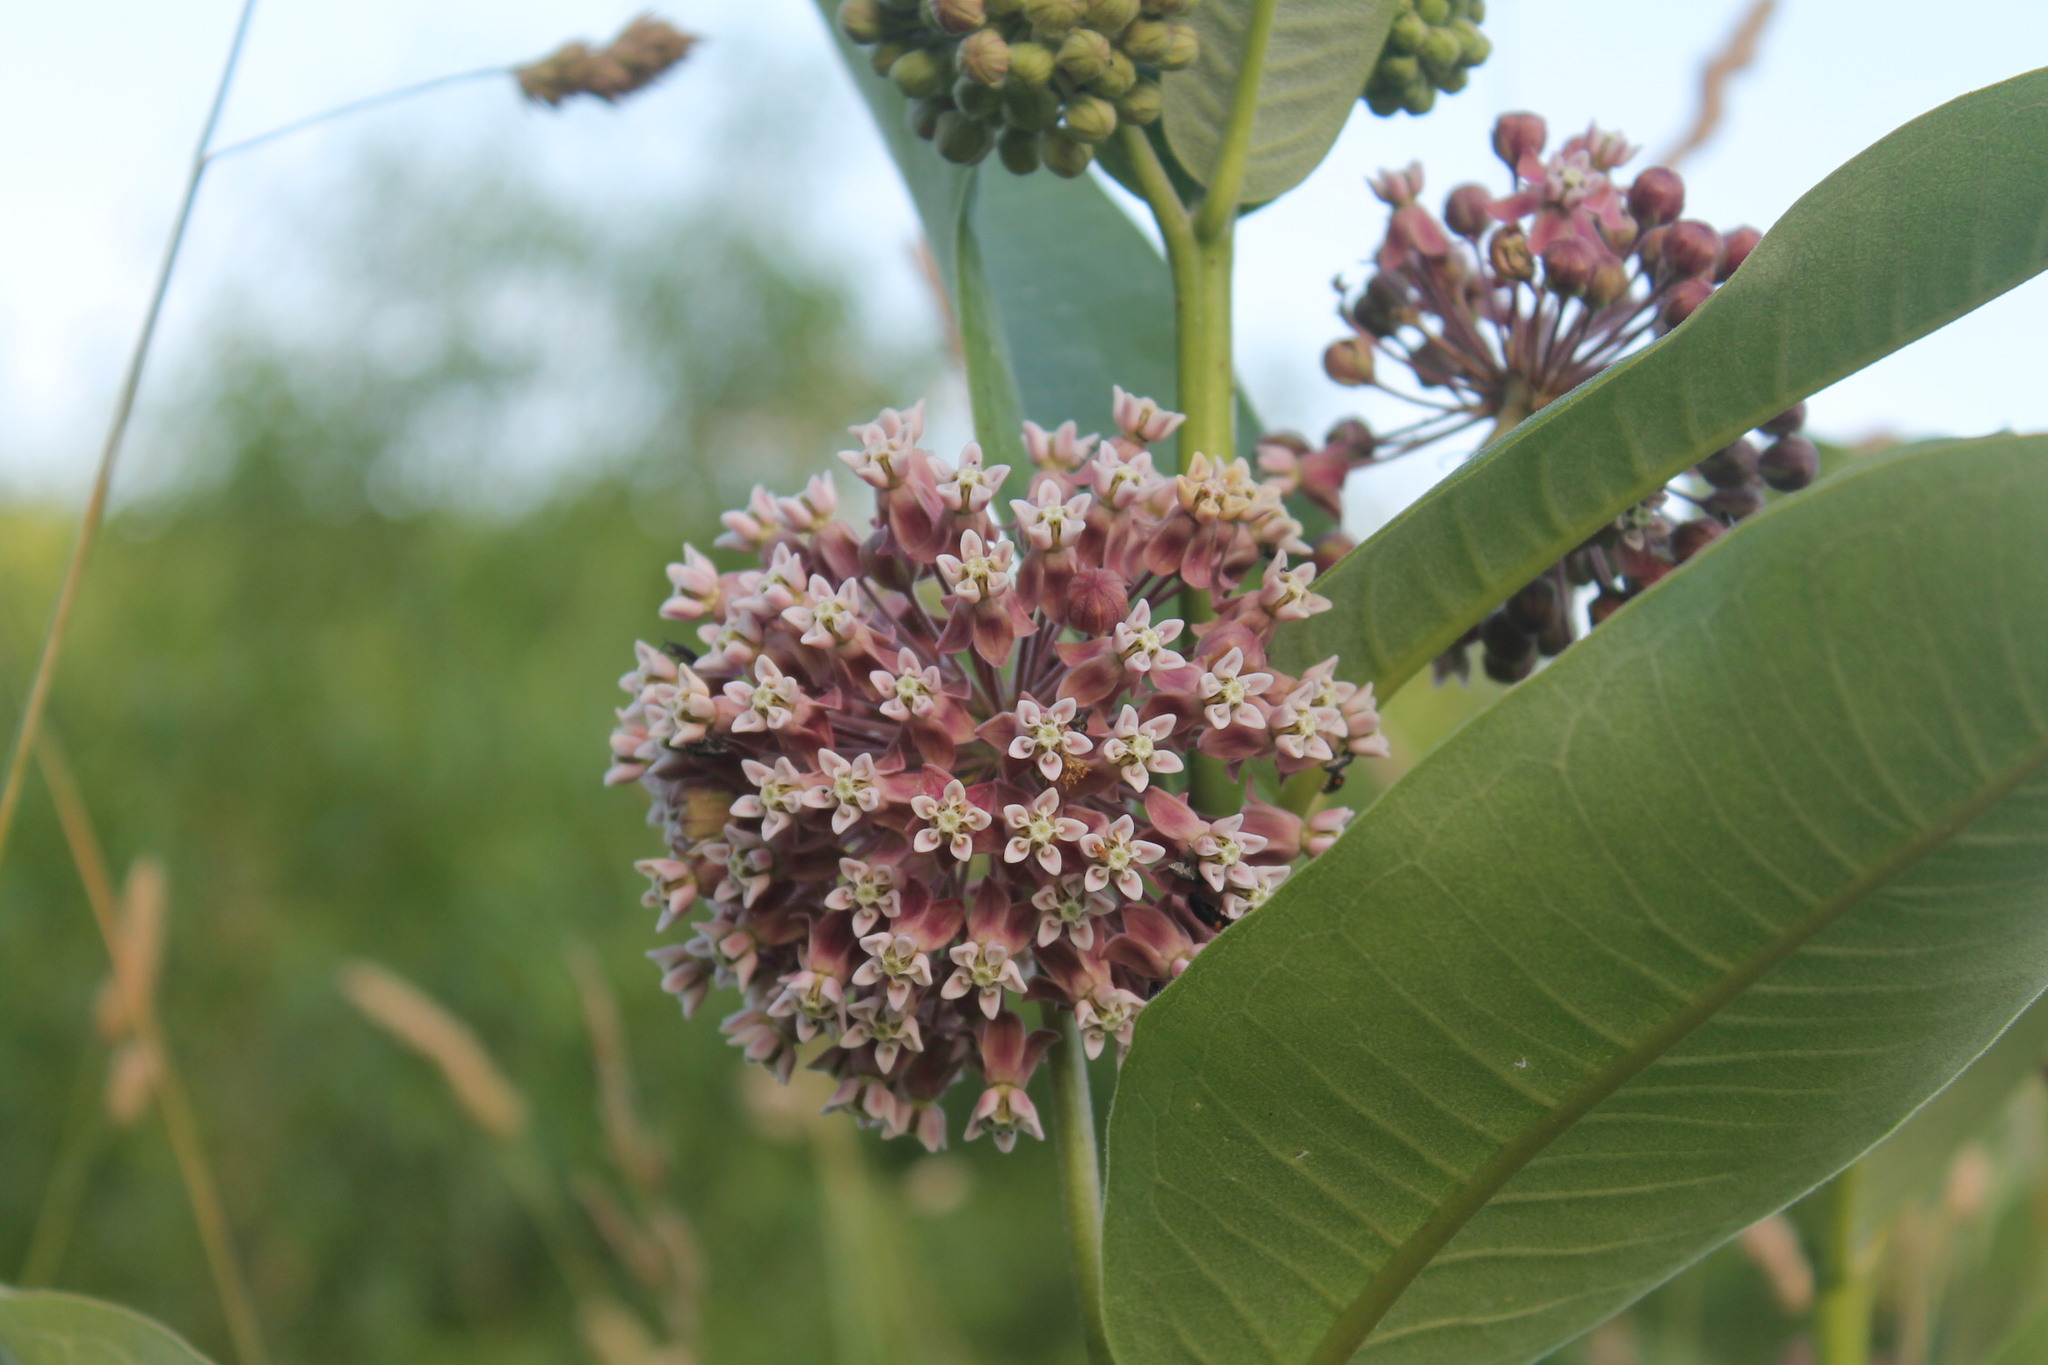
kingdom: Plantae
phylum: Tracheophyta
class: Magnoliopsida
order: Gentianales
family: Apocynaceae
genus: Asclepias
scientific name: Asclepias syriaca
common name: Common milkweed
